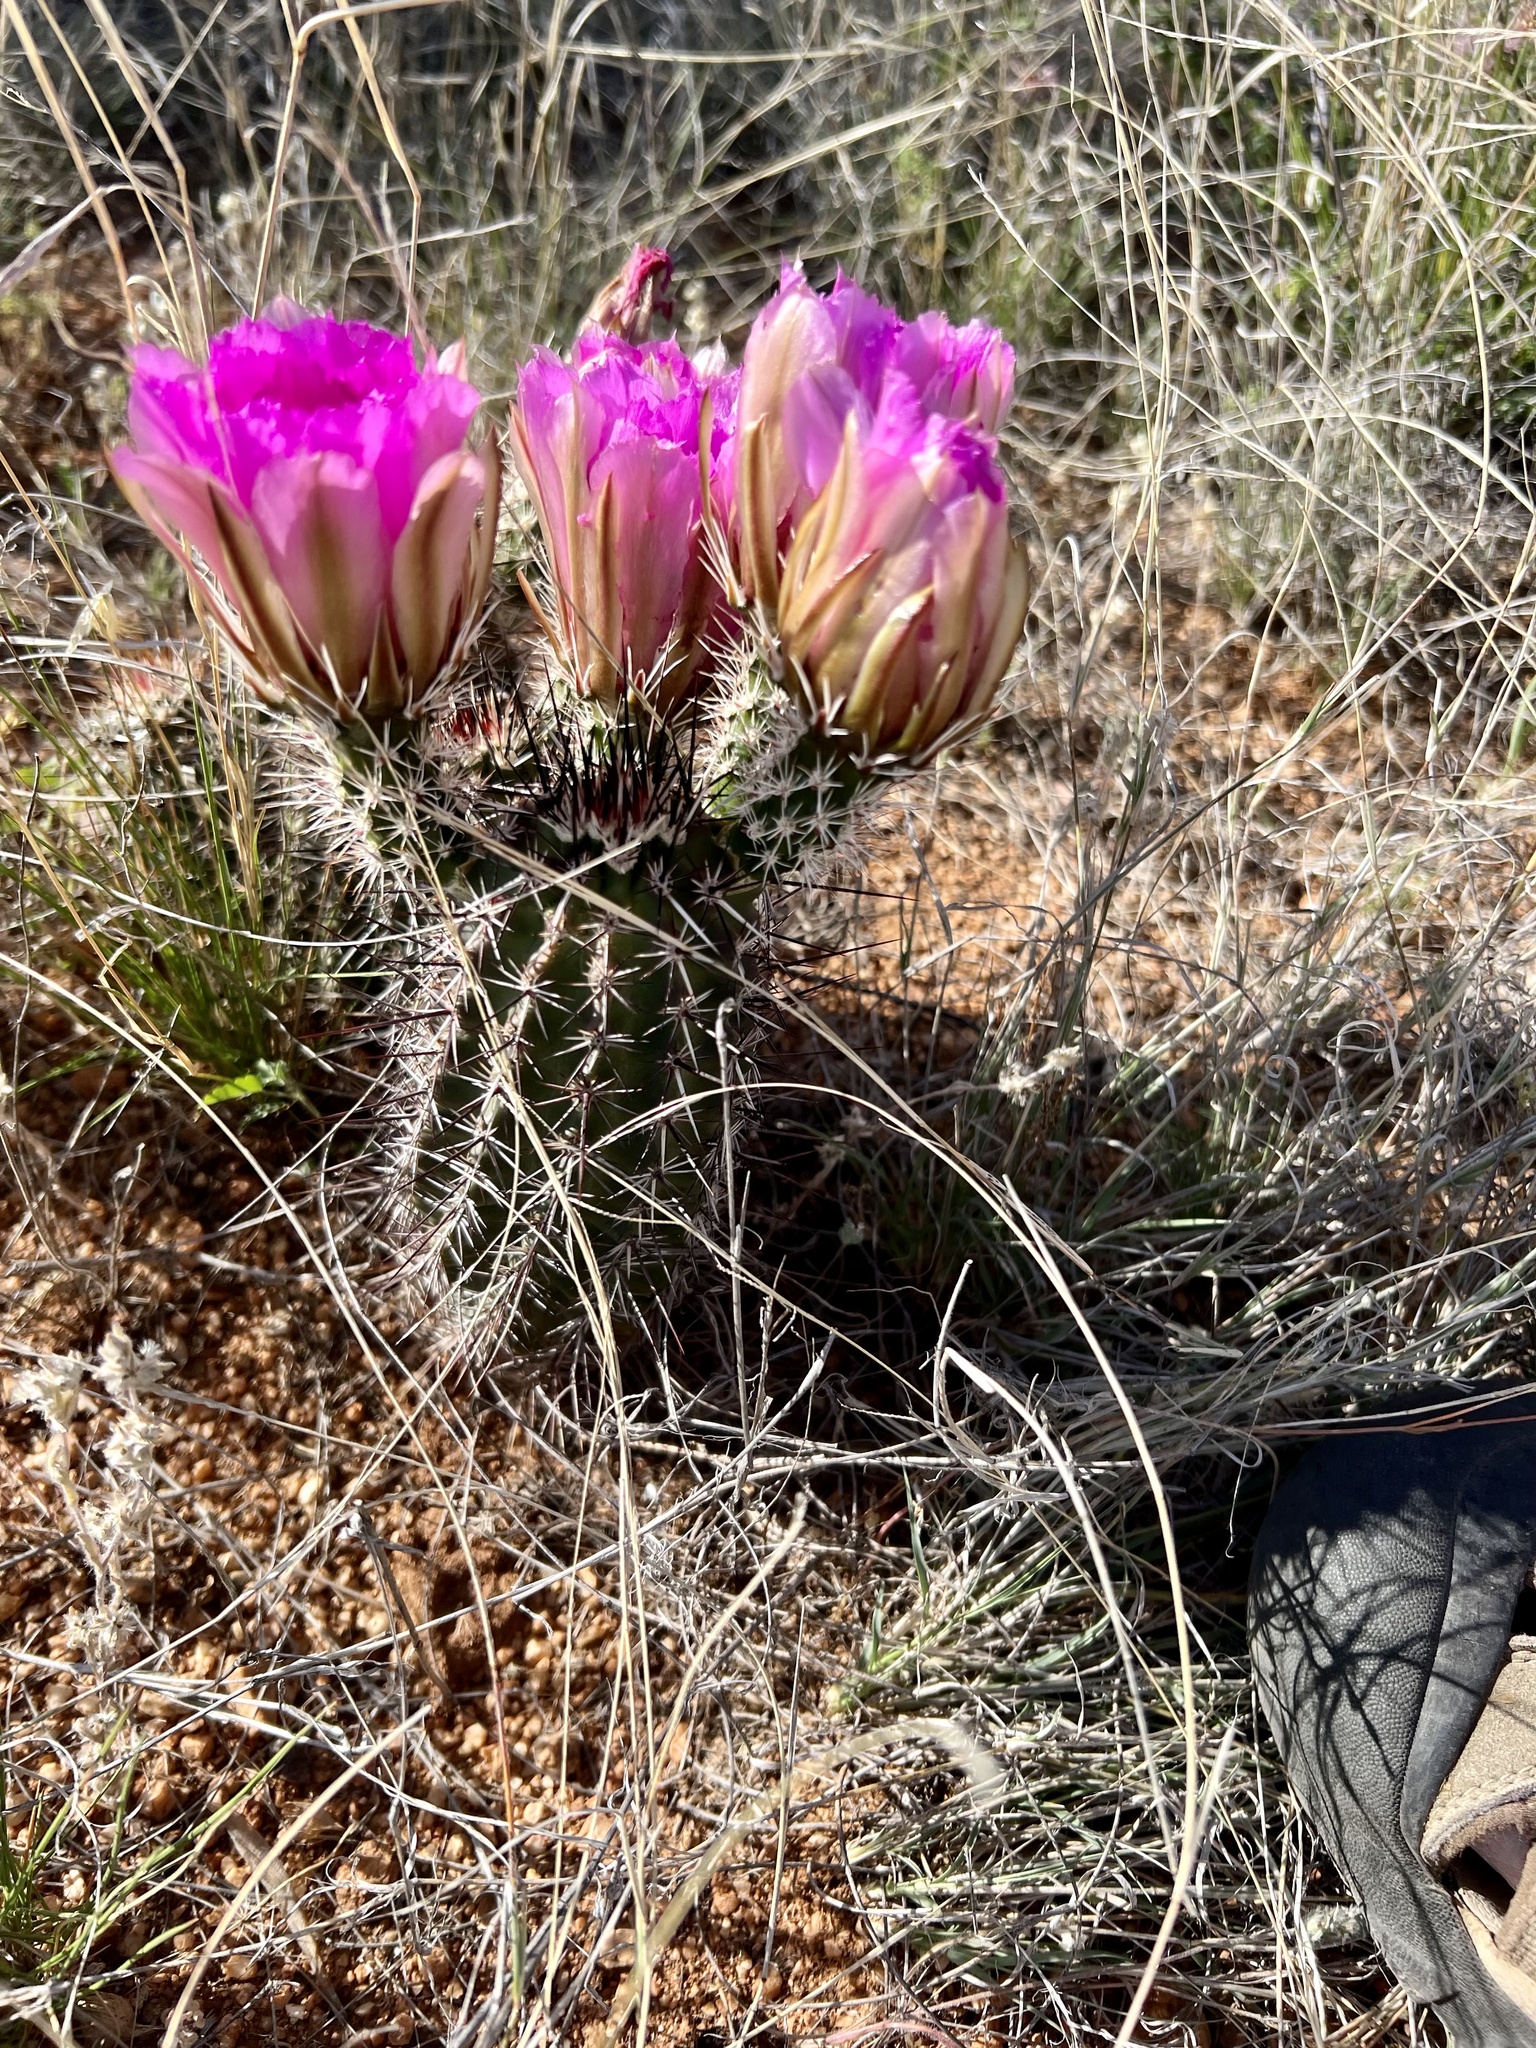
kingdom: Plantae
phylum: Tracheophyta
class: Magnoliopsida
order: Caryophyllales
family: Cactaceae
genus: Echinocereus
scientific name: Echinocereus fasciculatus
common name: Bundle hedgehog
